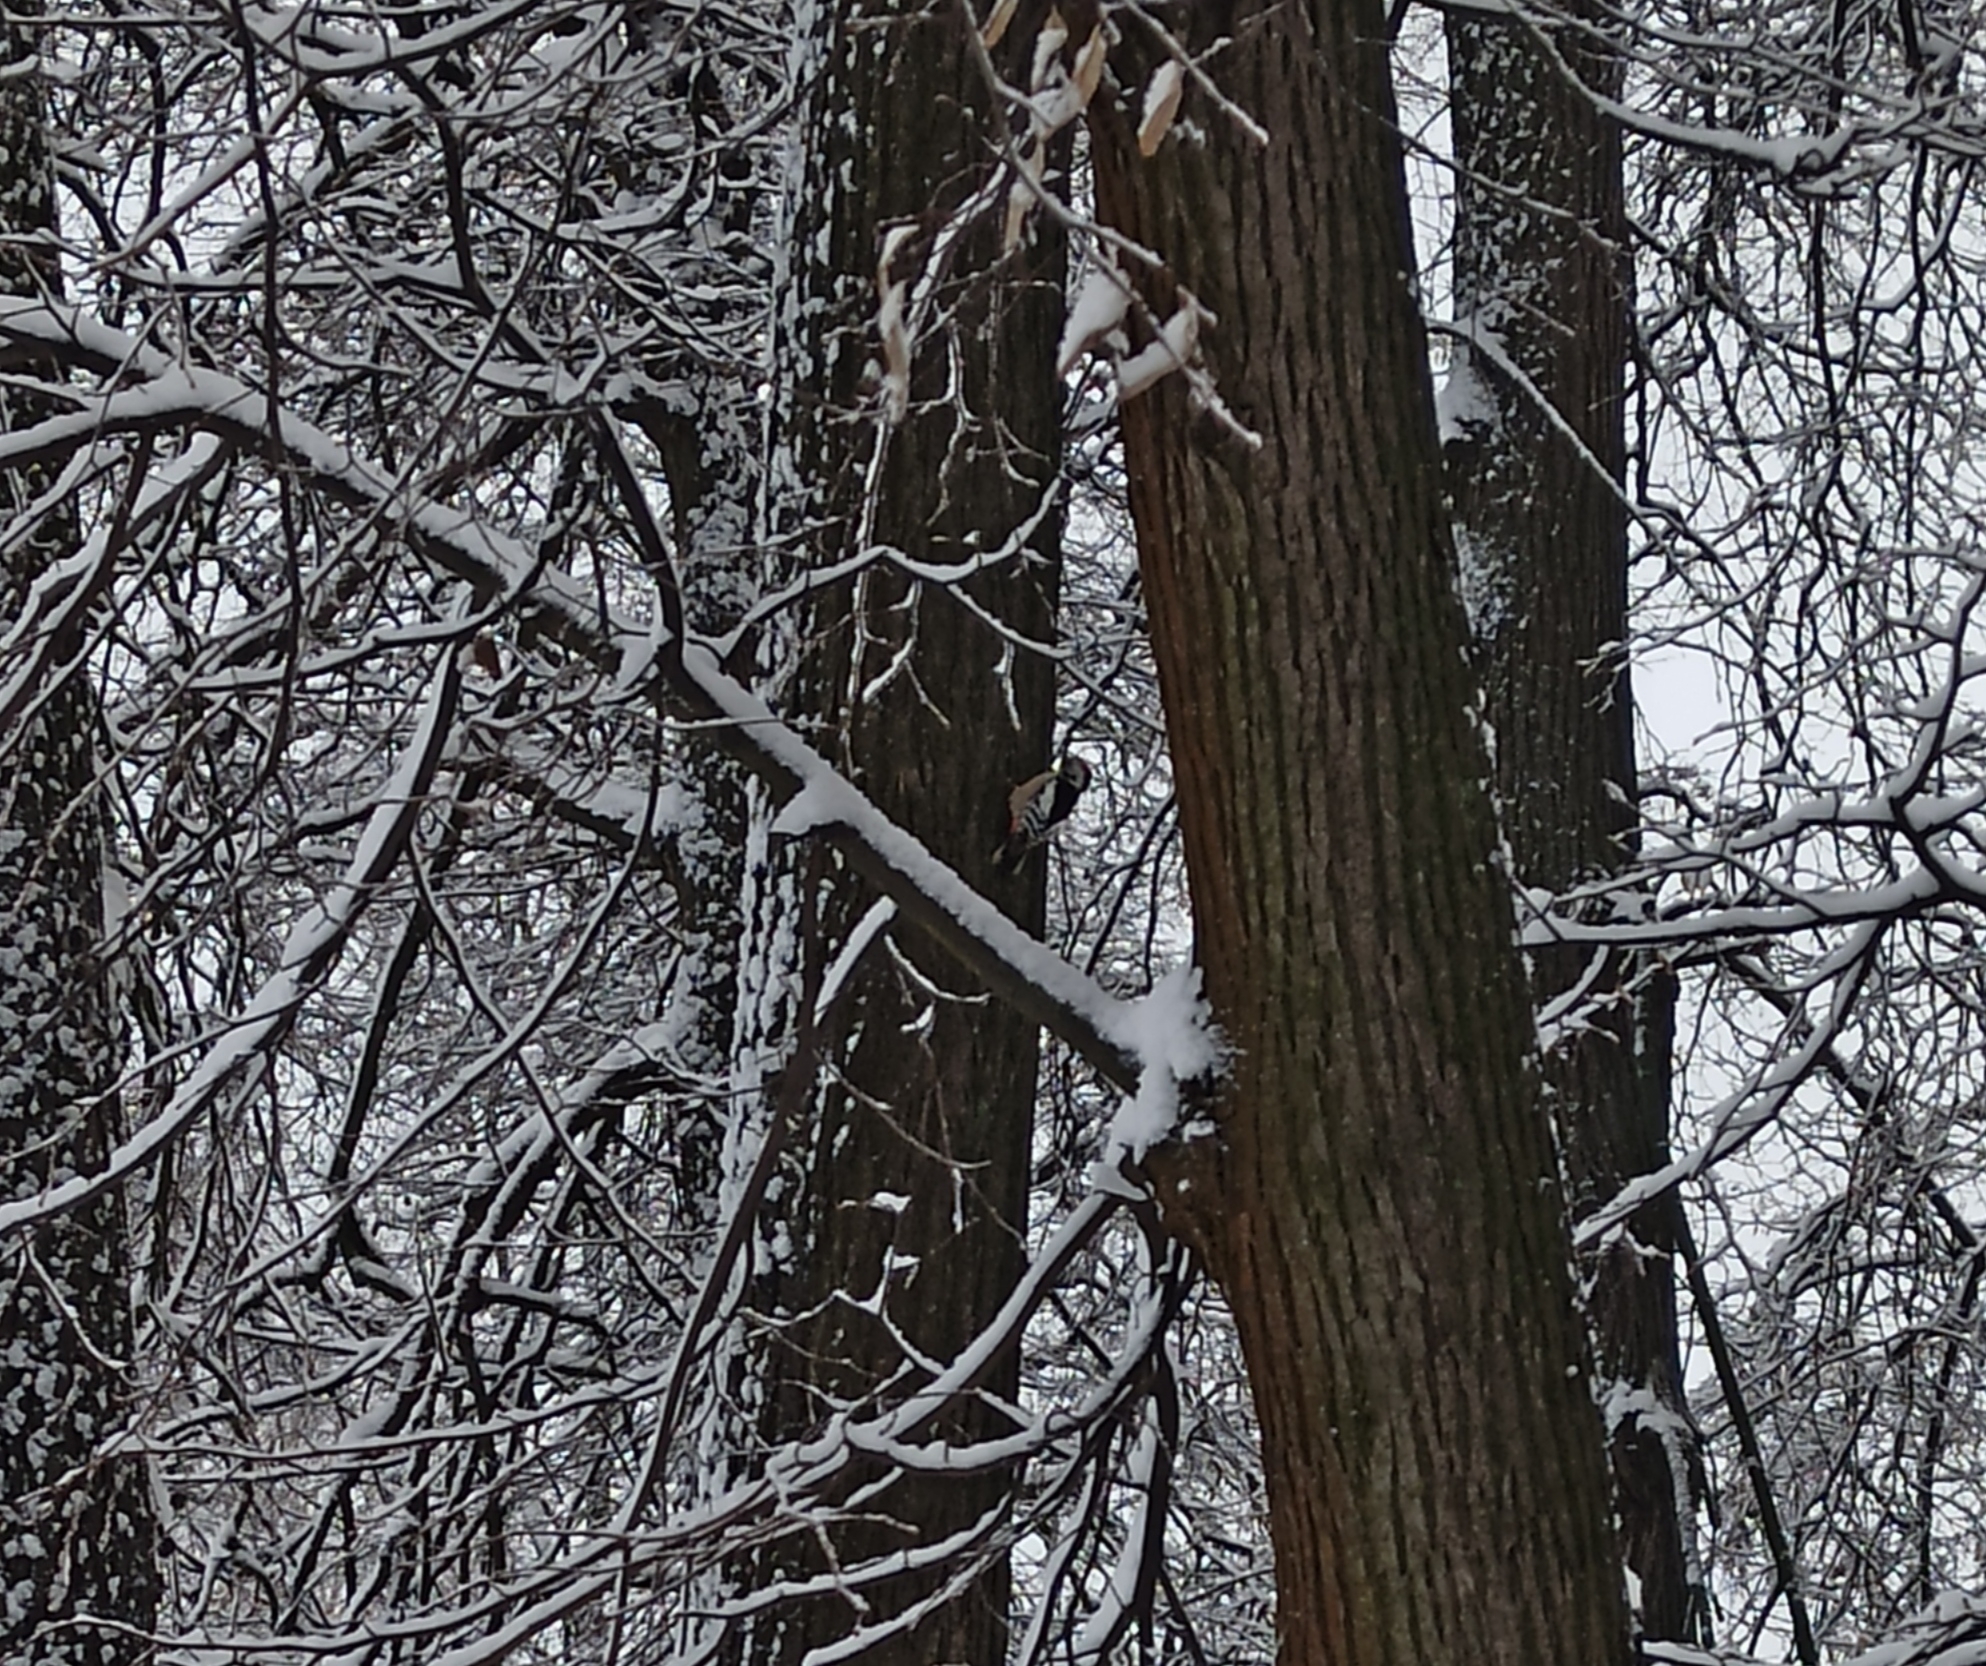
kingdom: Animalia
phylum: Chordata
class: Aves
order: Piciformes
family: Picidae
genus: Dendrocoptes
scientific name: Dendrocoptes medius
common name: Middle spotted woodpecker
